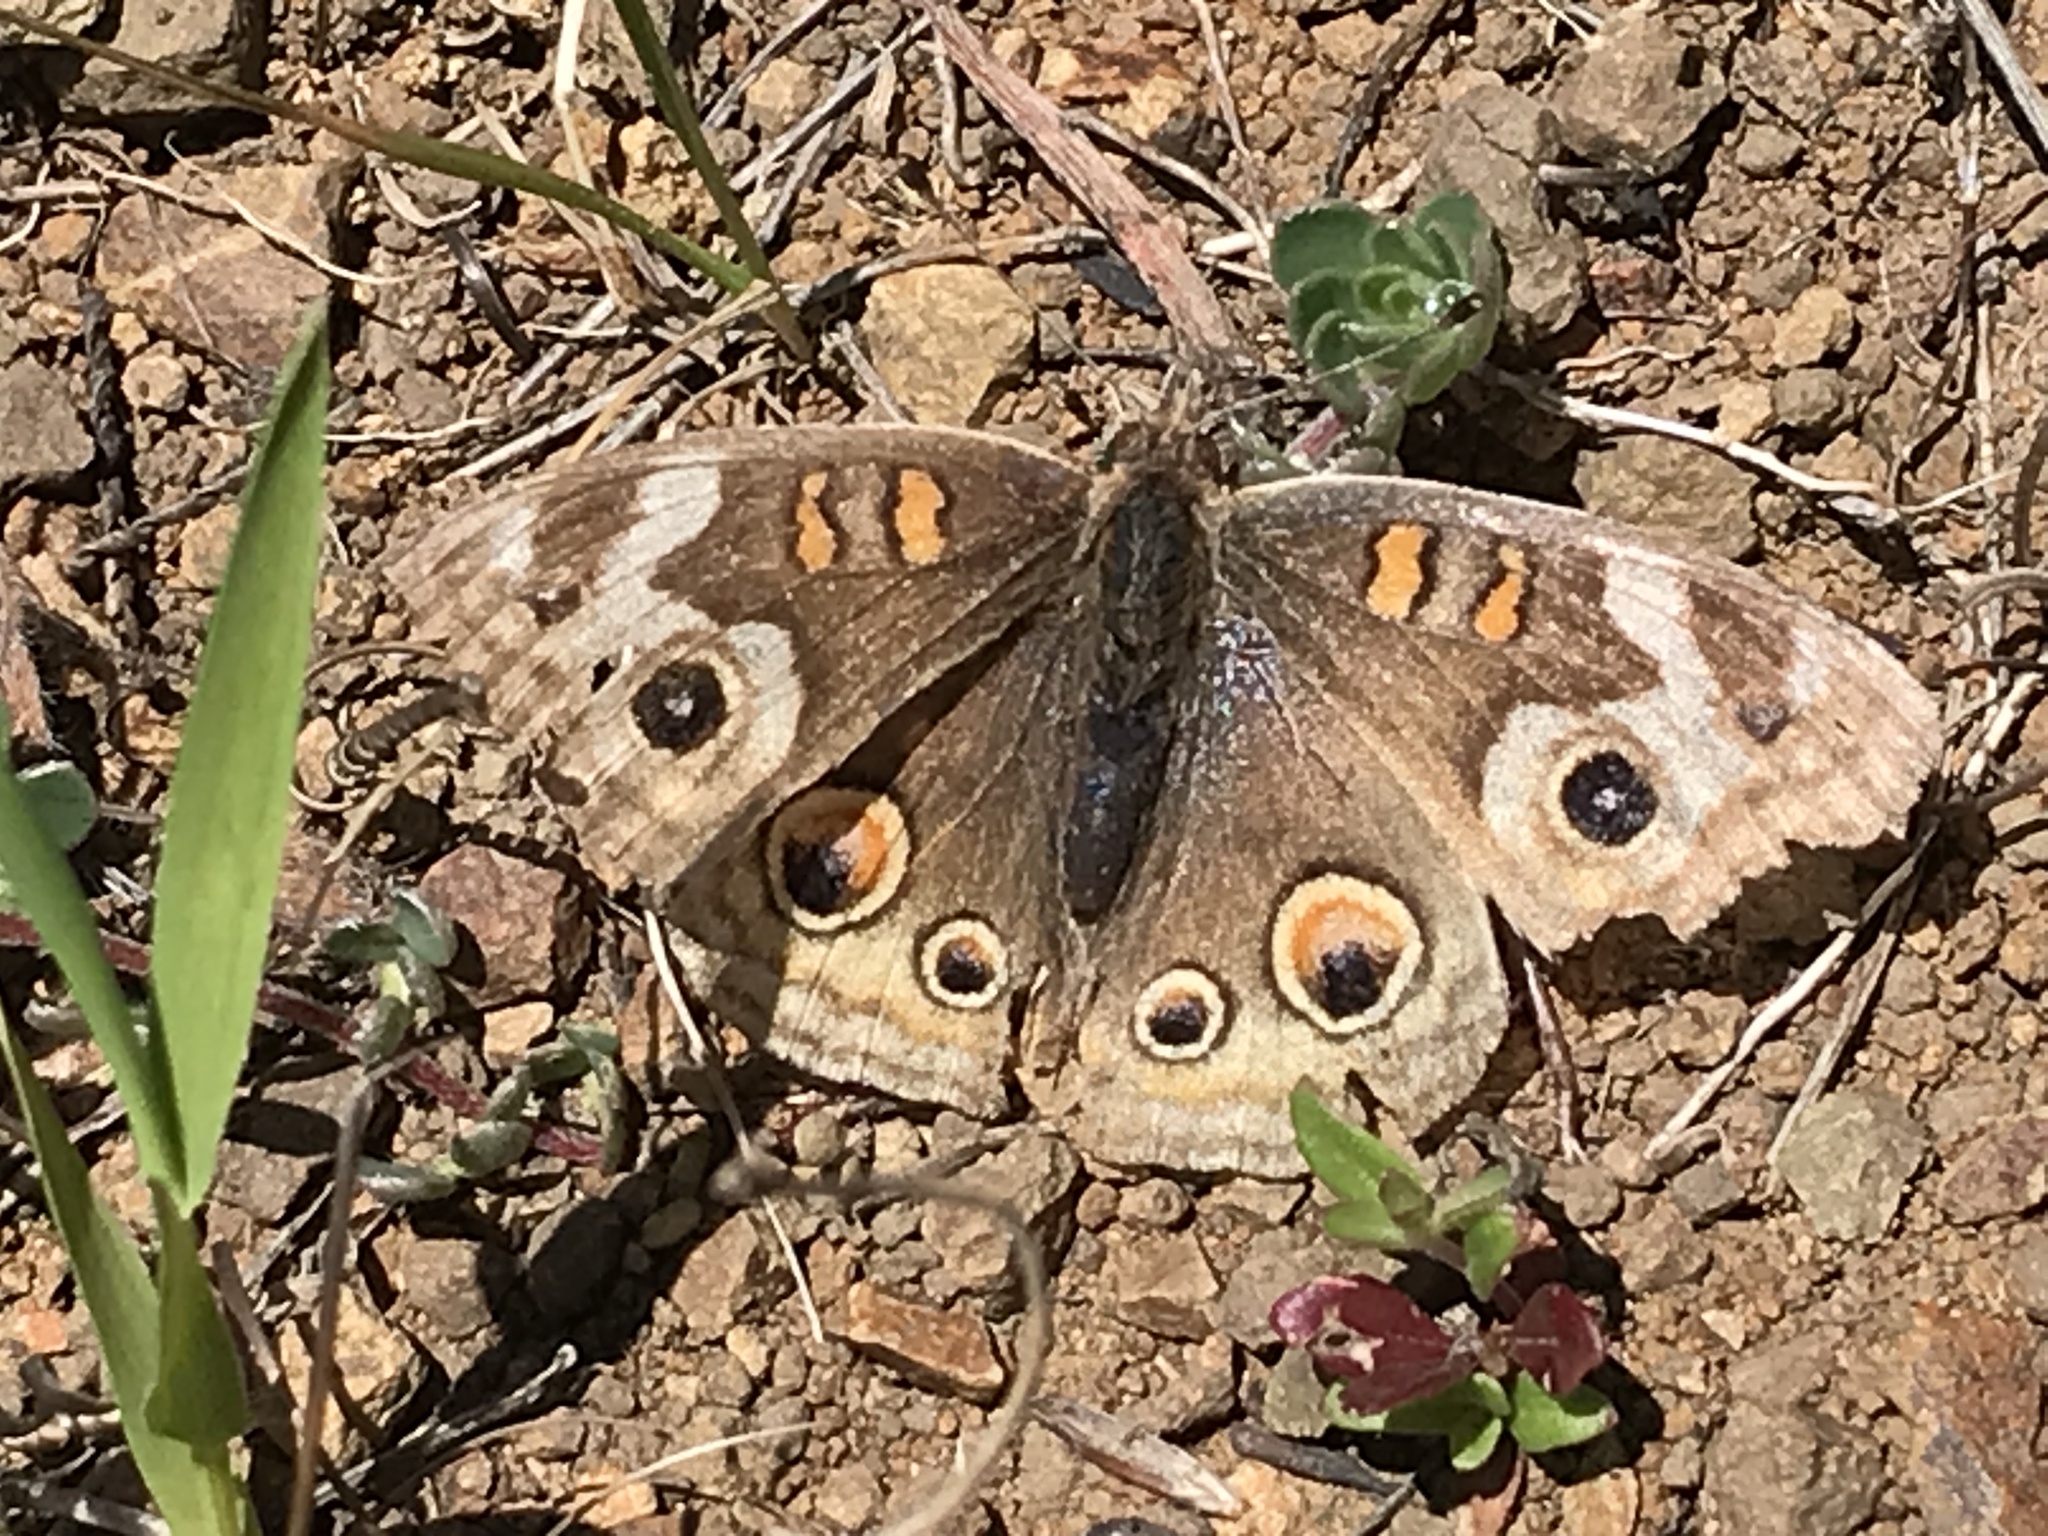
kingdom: Animalia
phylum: Arthropoda
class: Insecta
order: Lepidoptera
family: Nymphalidae
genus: Junonia
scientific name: Junonia grisea
